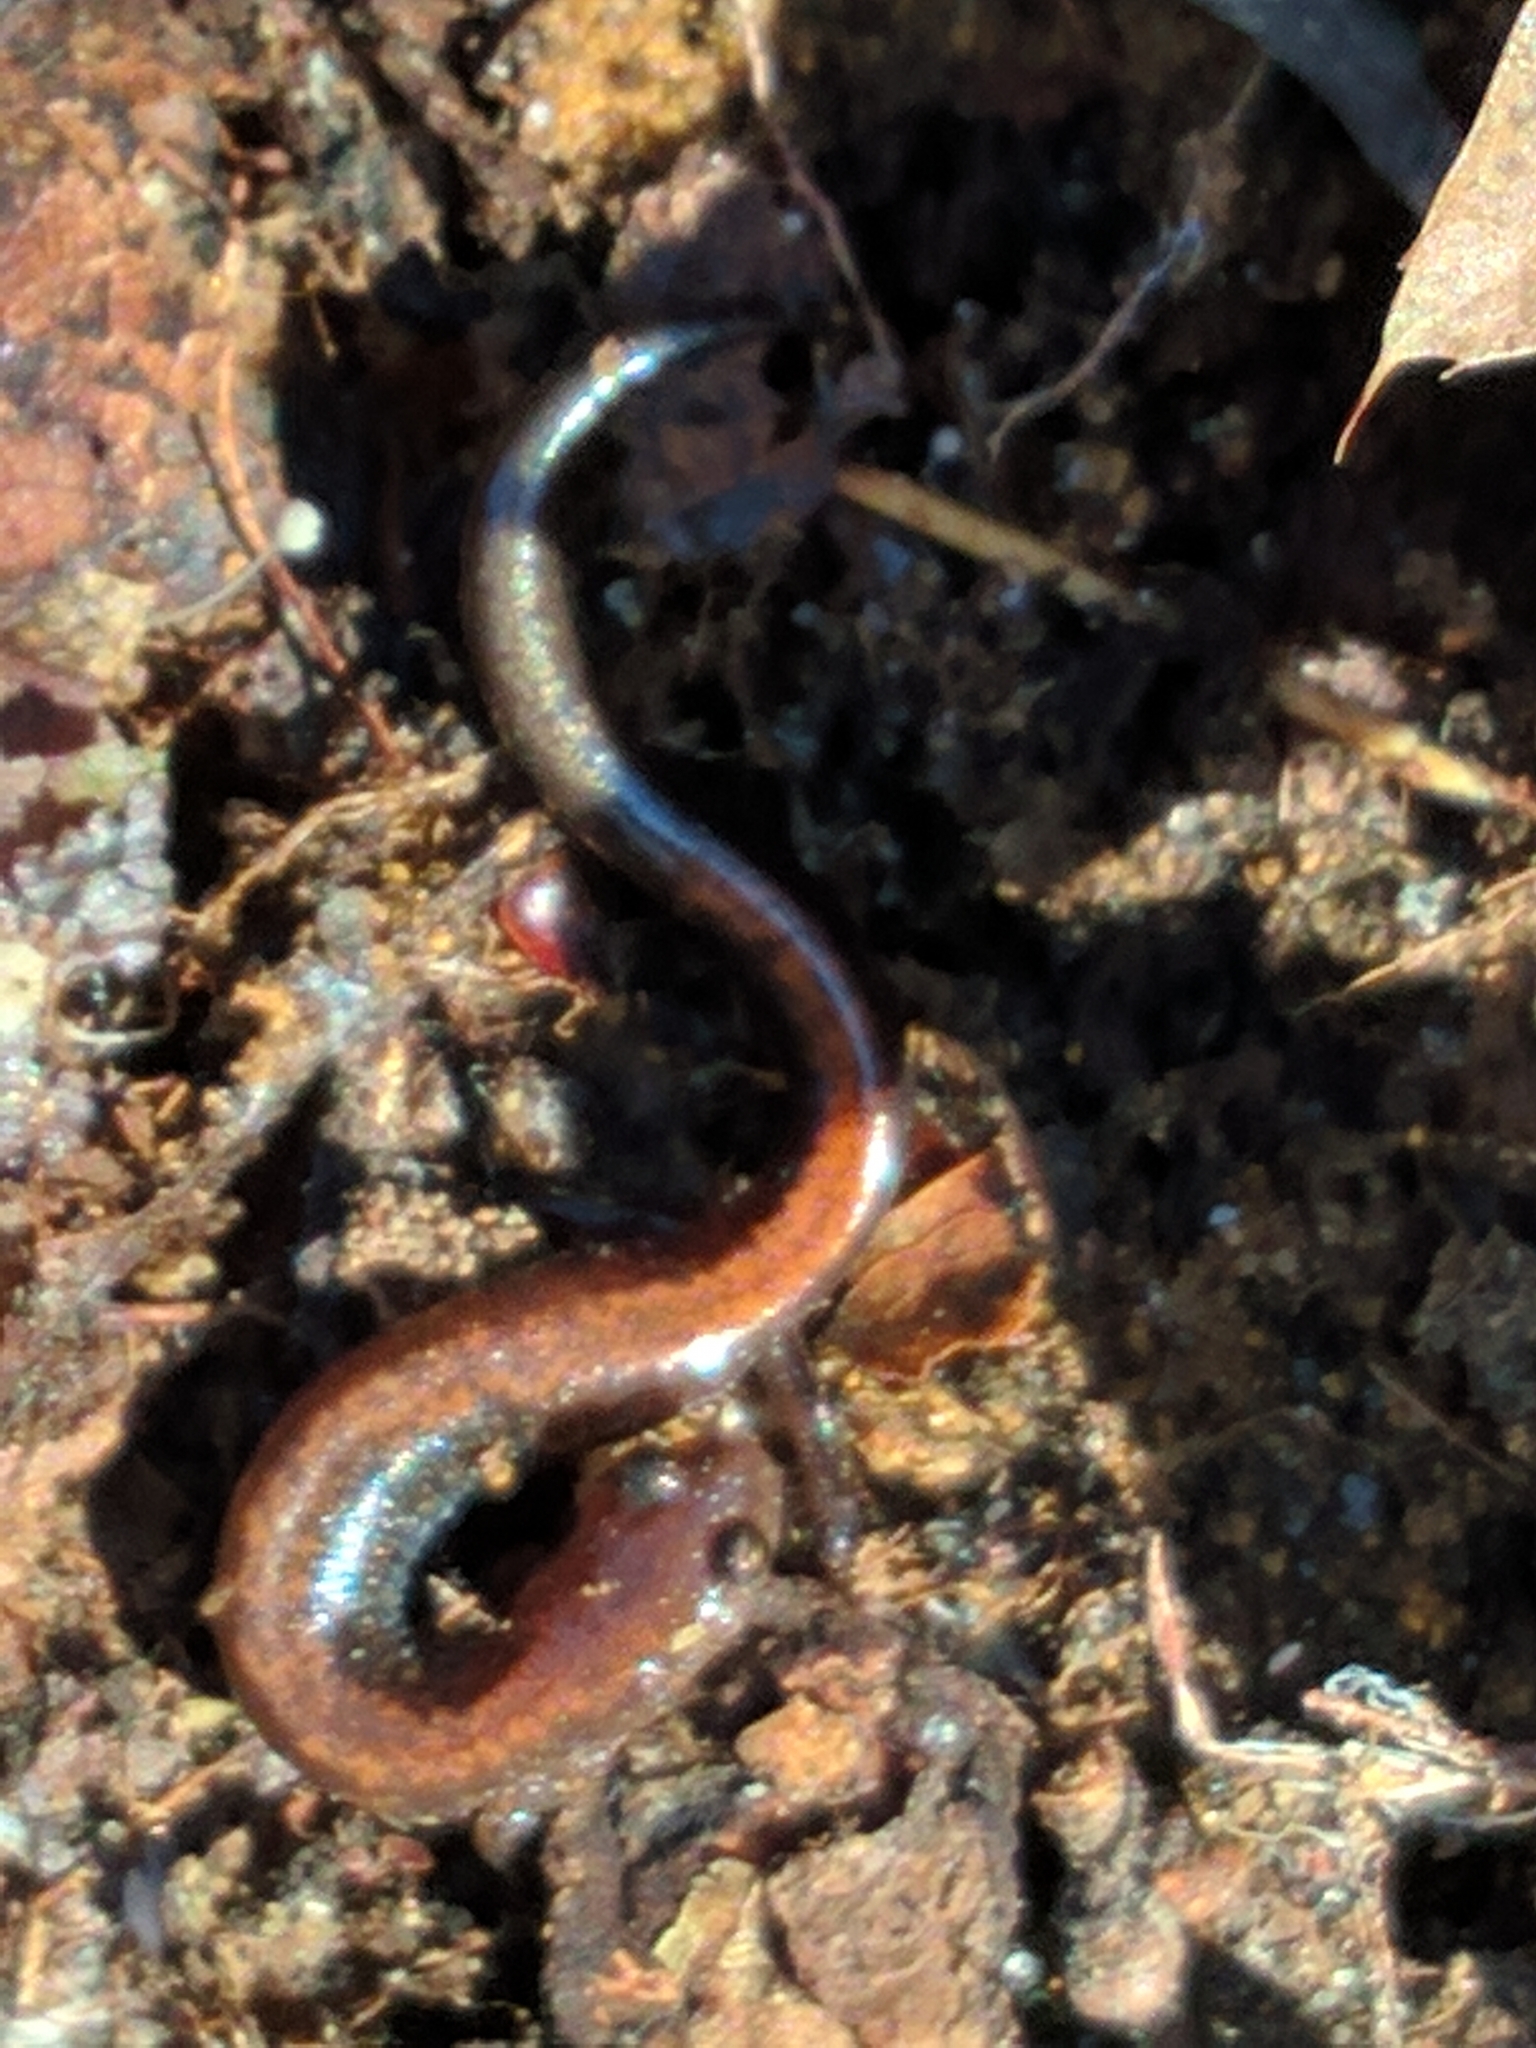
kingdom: Animalia
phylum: Chordata
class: Amphibia
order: Caudata
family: Plethodontidae
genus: Plethodon
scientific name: Plethodon cinereus
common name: Redback salamander
